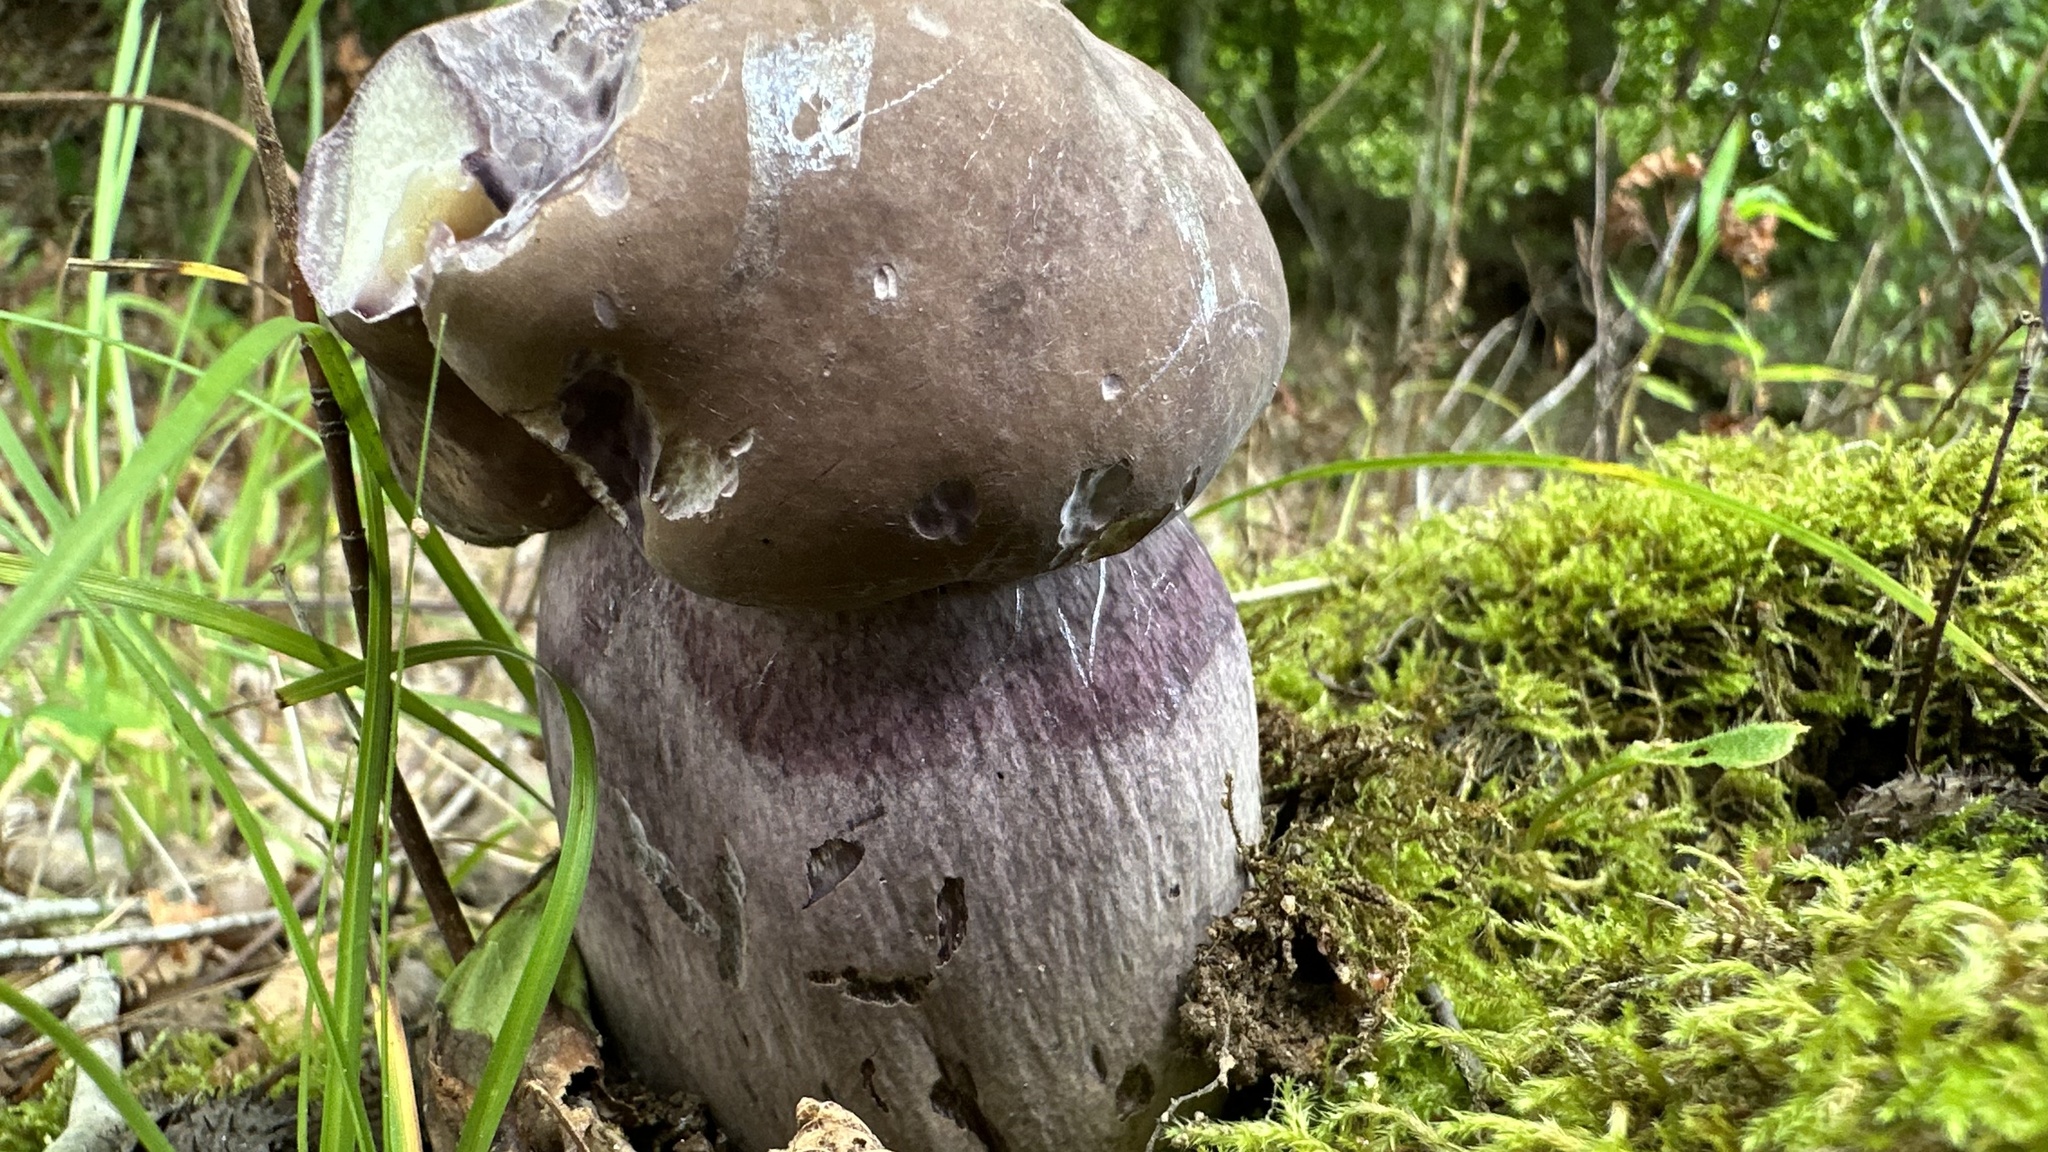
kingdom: Fungi
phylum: Basidiomycota
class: Agaricomycetes
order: Boletales
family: Boletaceae
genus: Tylopilus
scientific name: Tylopilus plumbeoviolaceus
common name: Violet gray bolete
